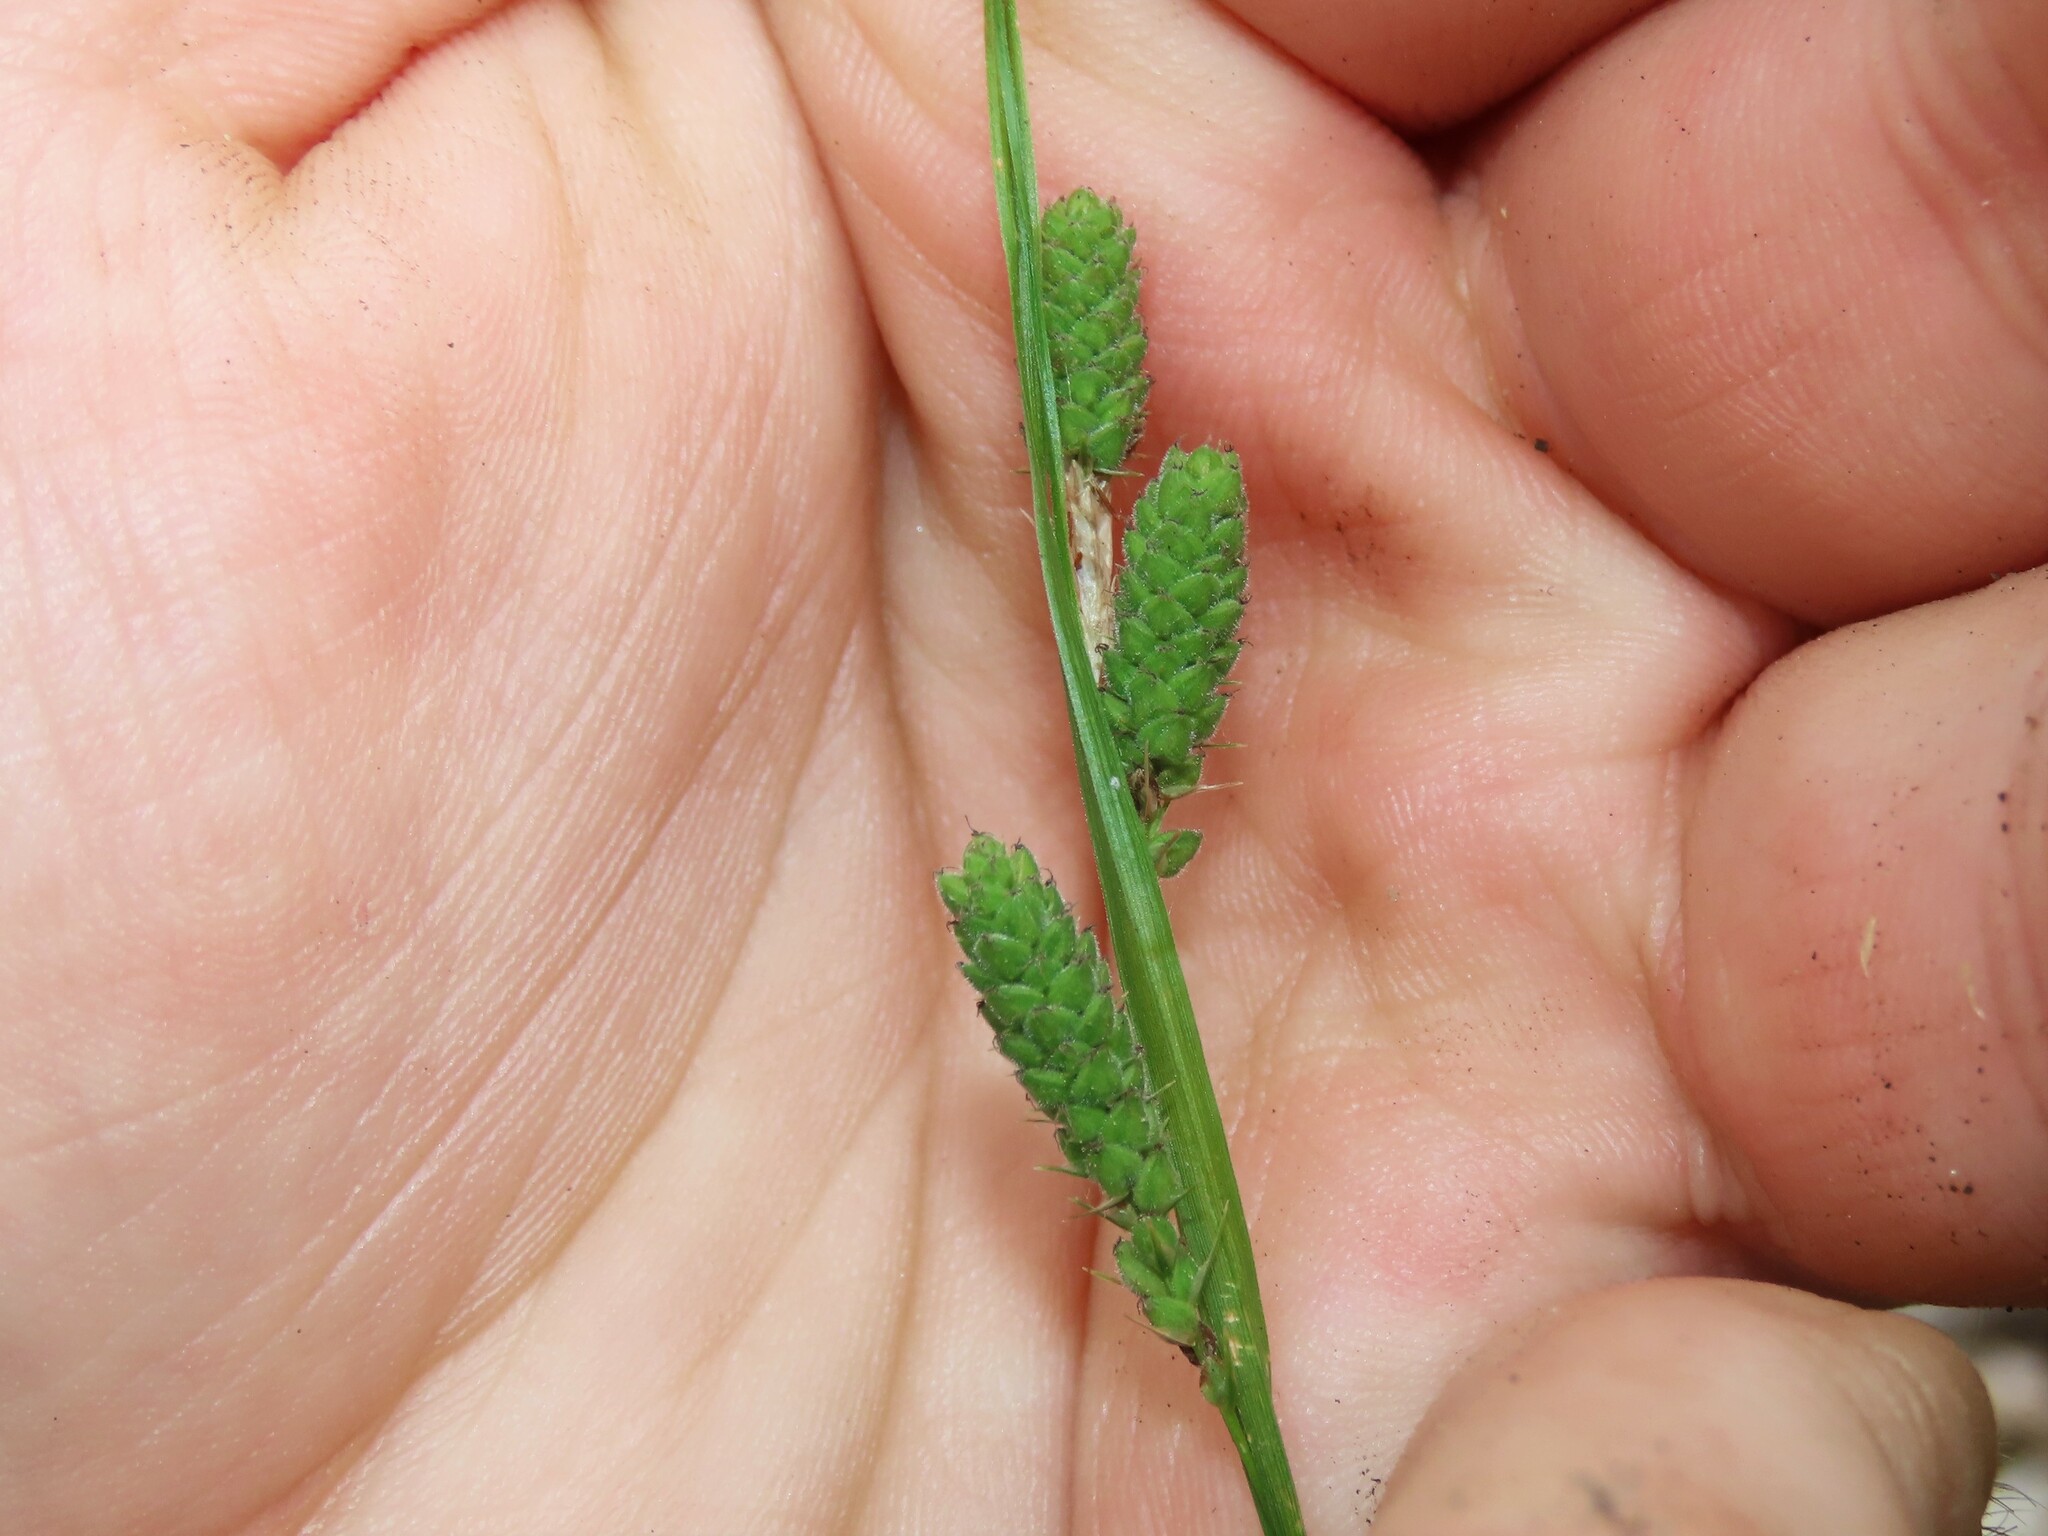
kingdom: Plantae
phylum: Tracheophyta
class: Liliopsida
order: Poales
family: Cyperaceae
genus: Carex
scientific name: Carex swanii
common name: Downy green sedge
